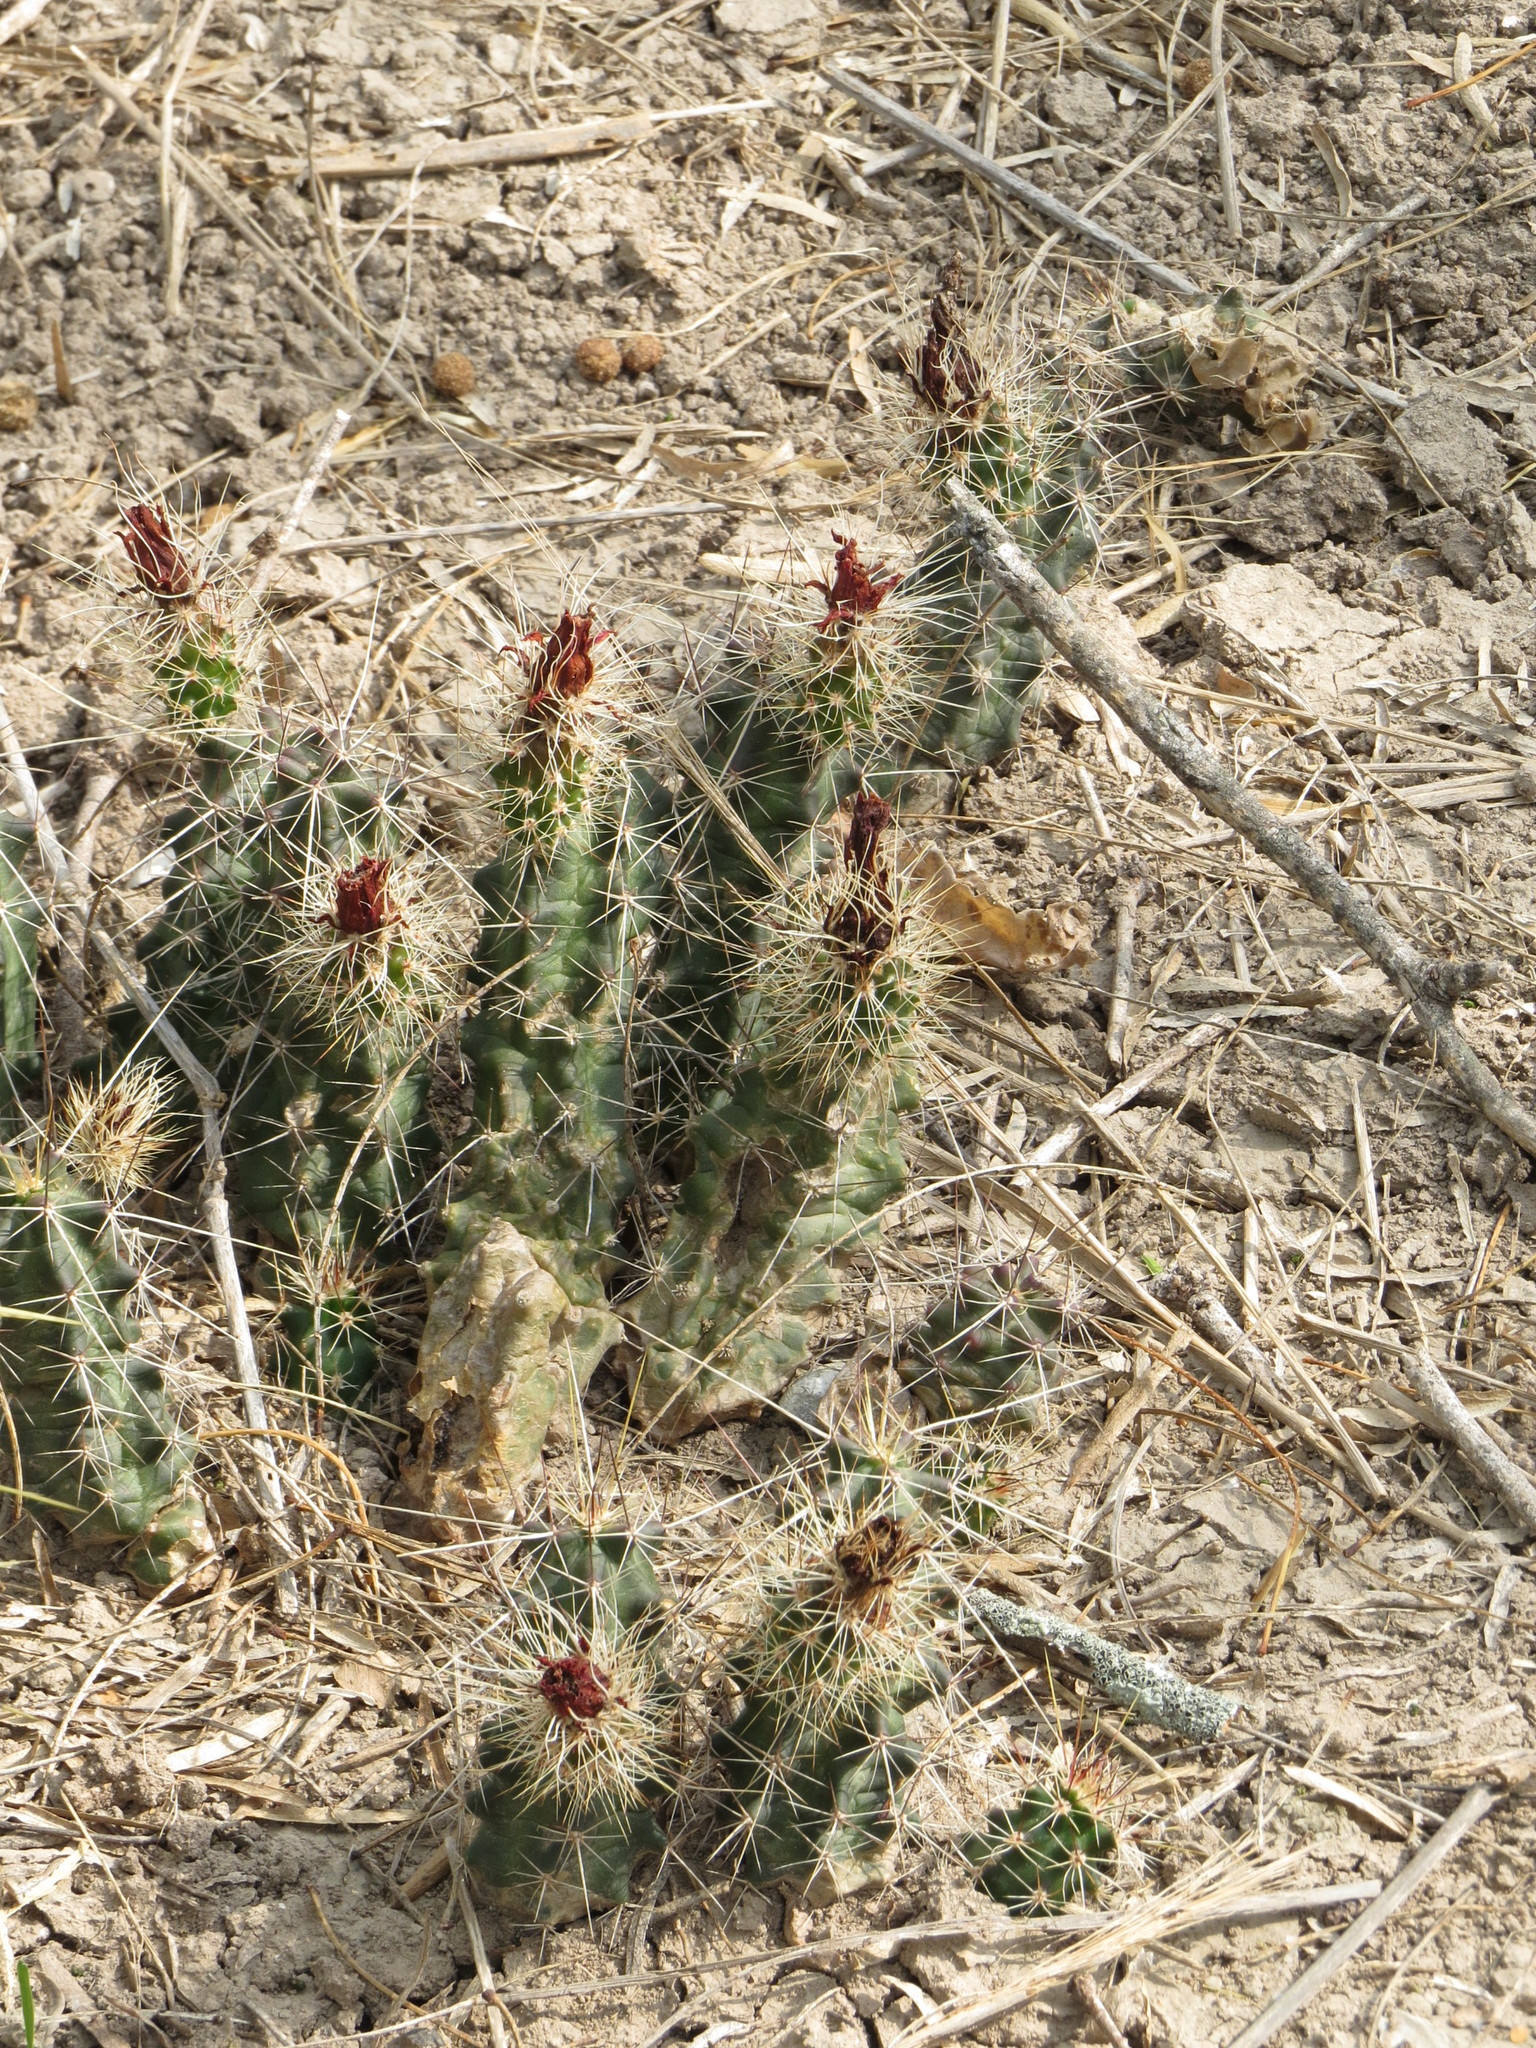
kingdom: Plantae
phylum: Tracheophyta
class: Magnoliopsida
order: Caryophyllales
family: Cactaceae
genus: Echinocereus
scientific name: Echinocereus berlandieri
